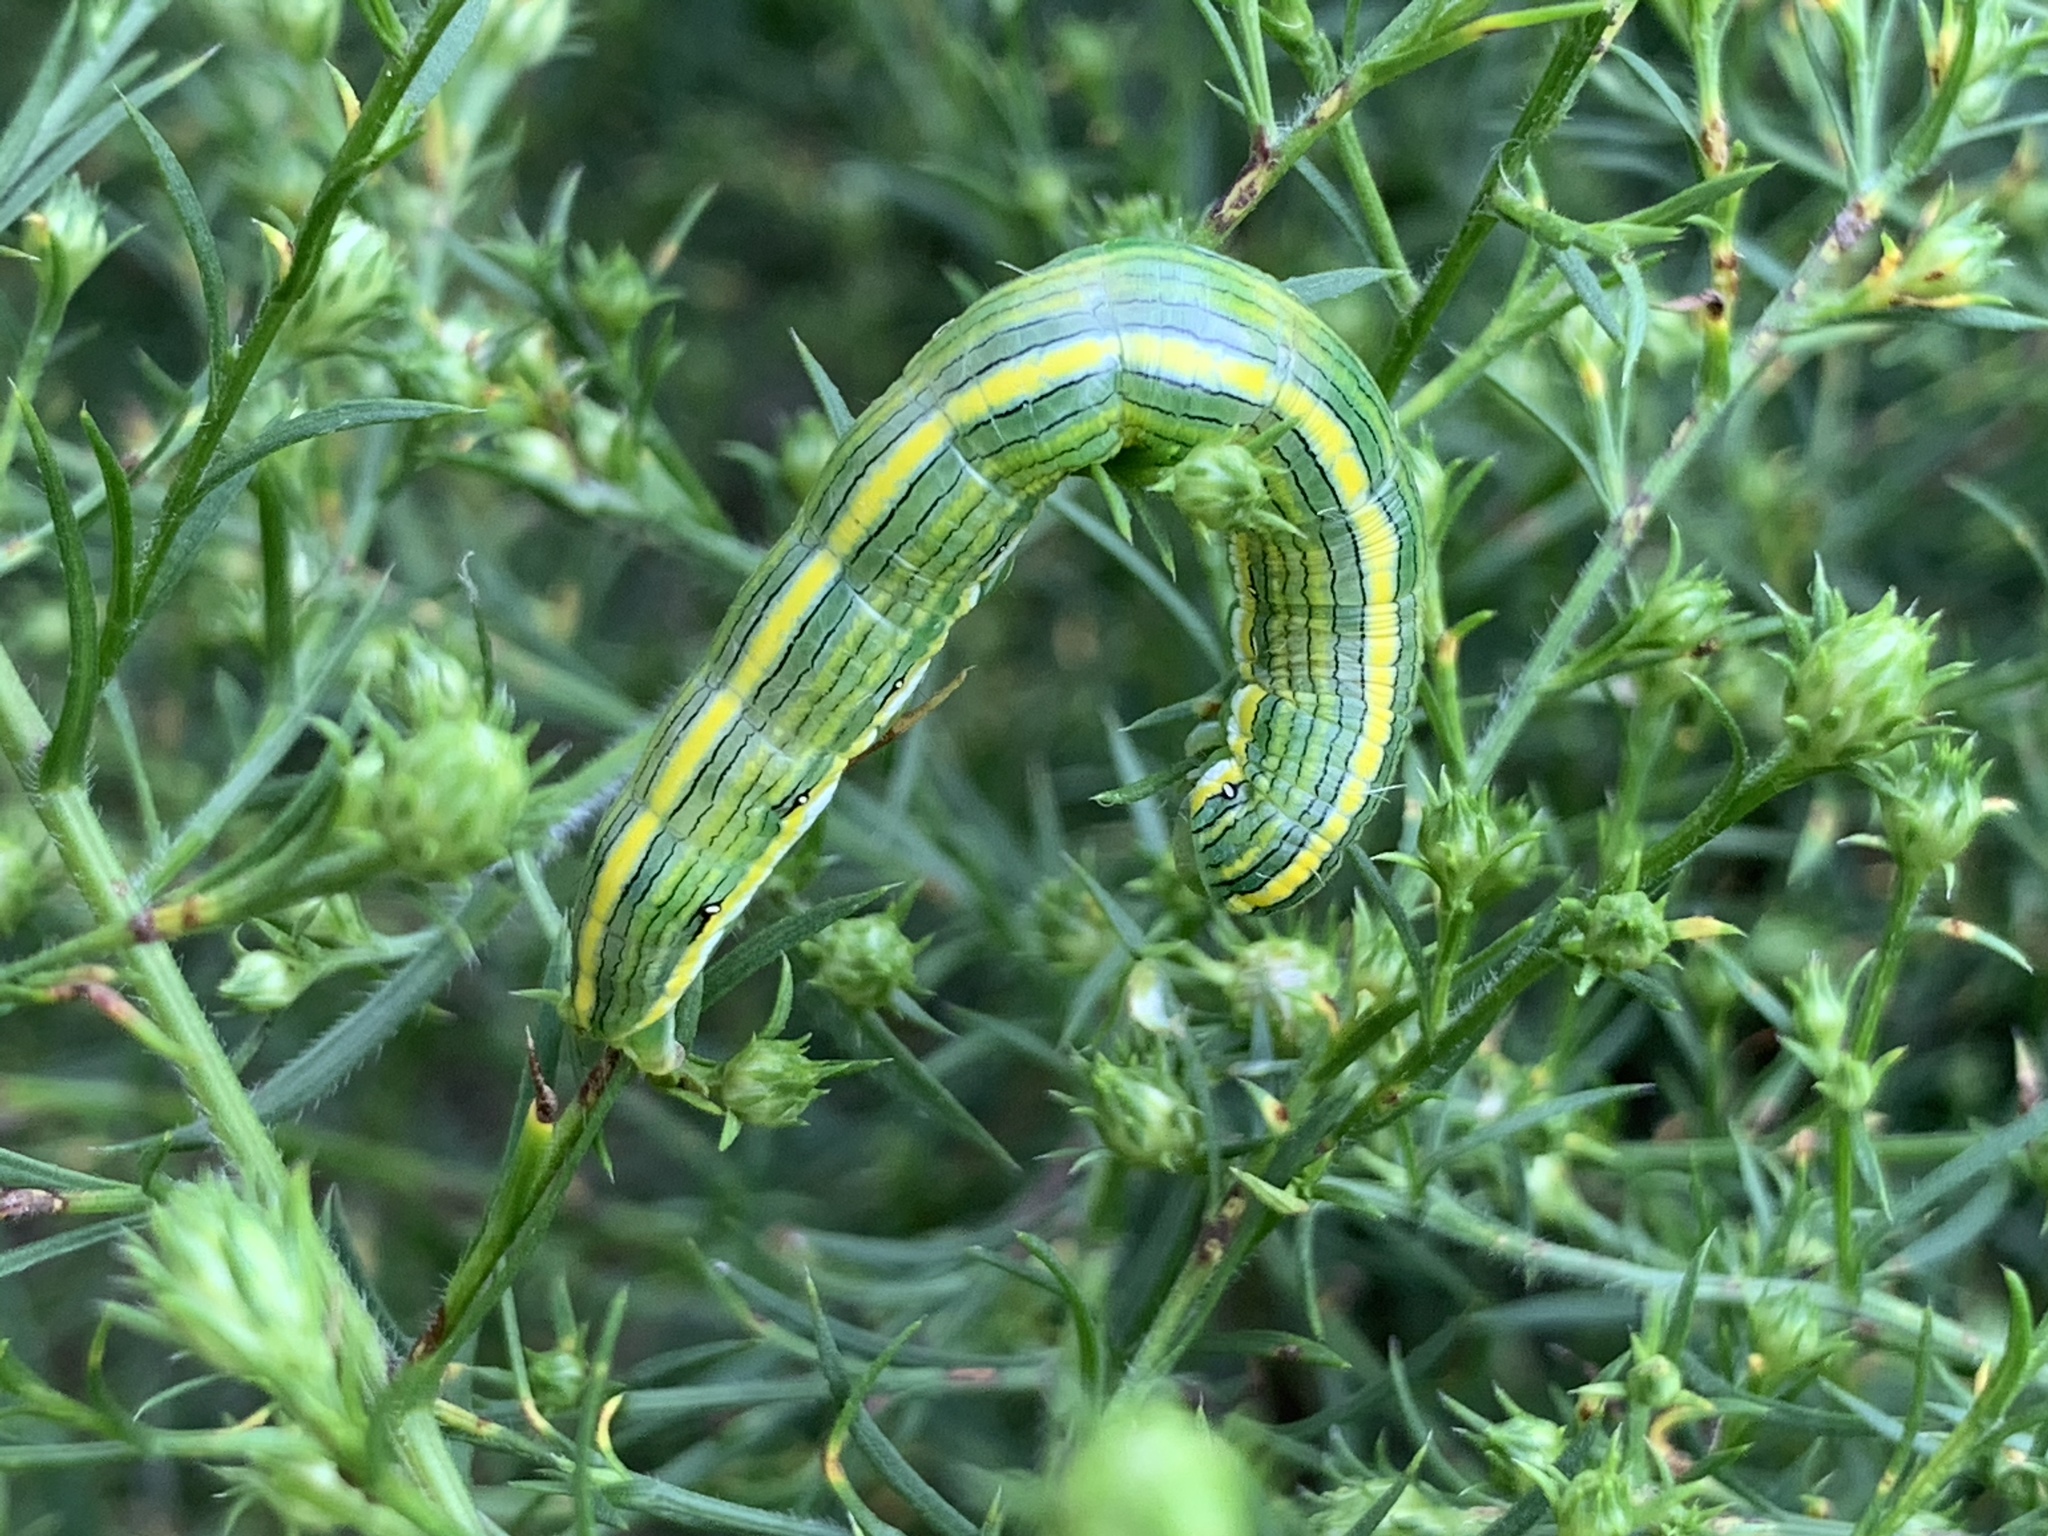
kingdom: Animalia
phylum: Arthropoda
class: Insecta
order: Lepidoptera
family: Noctuidae
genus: Cucullia
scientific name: Cucullia asteroides
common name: Asteroid moth
